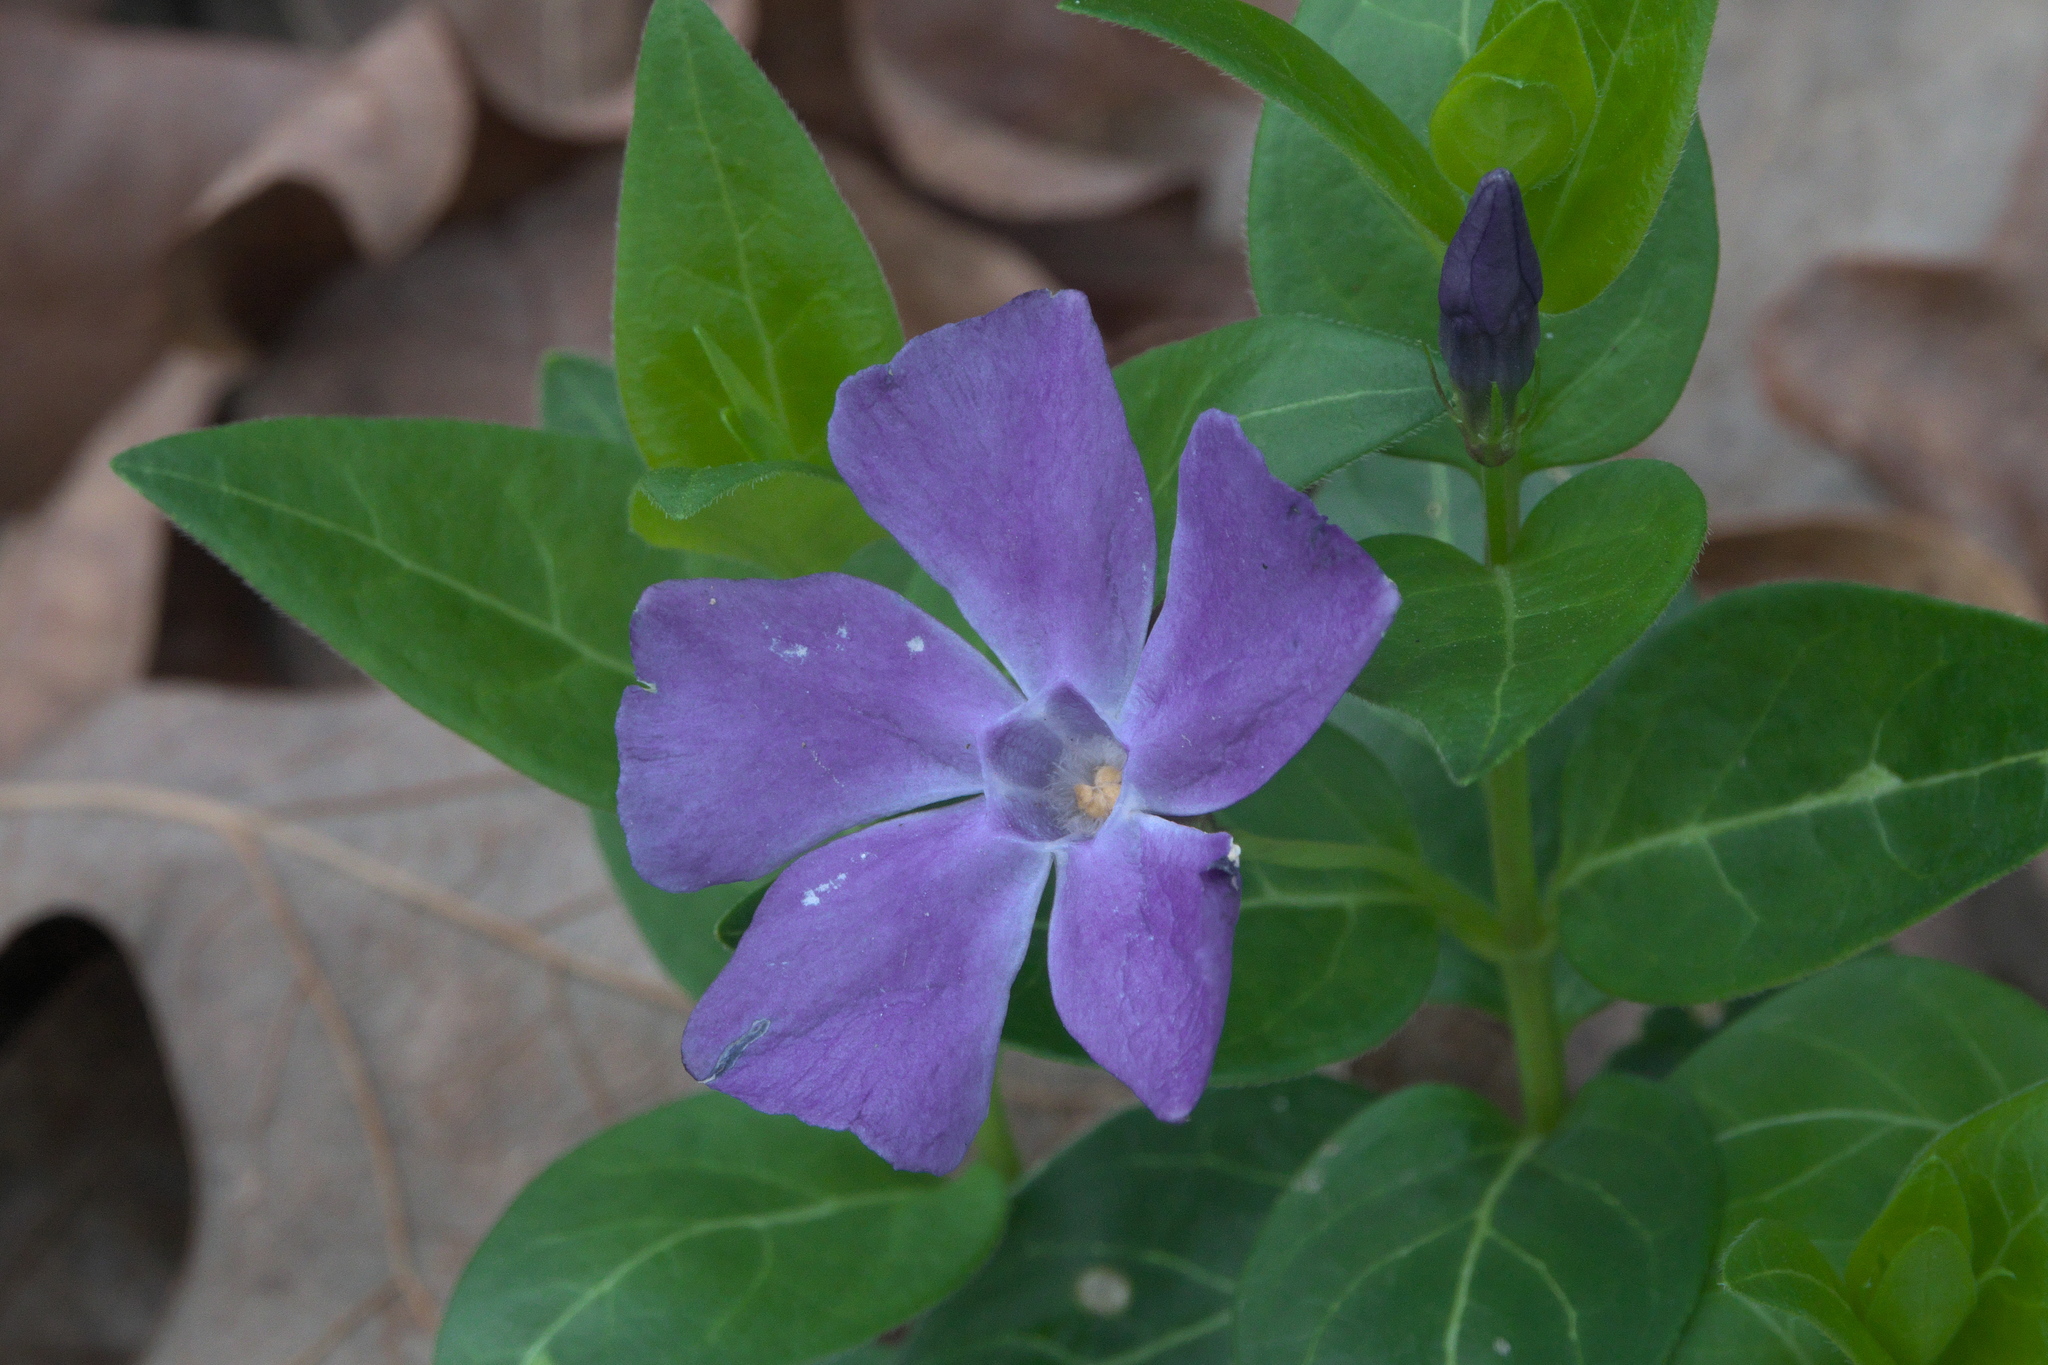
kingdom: Plantae
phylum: Tracheophyta
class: Magnoliopsida
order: Gentianales
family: Apocynaceae
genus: Vinca
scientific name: Vinca major
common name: Greater periwinkle
